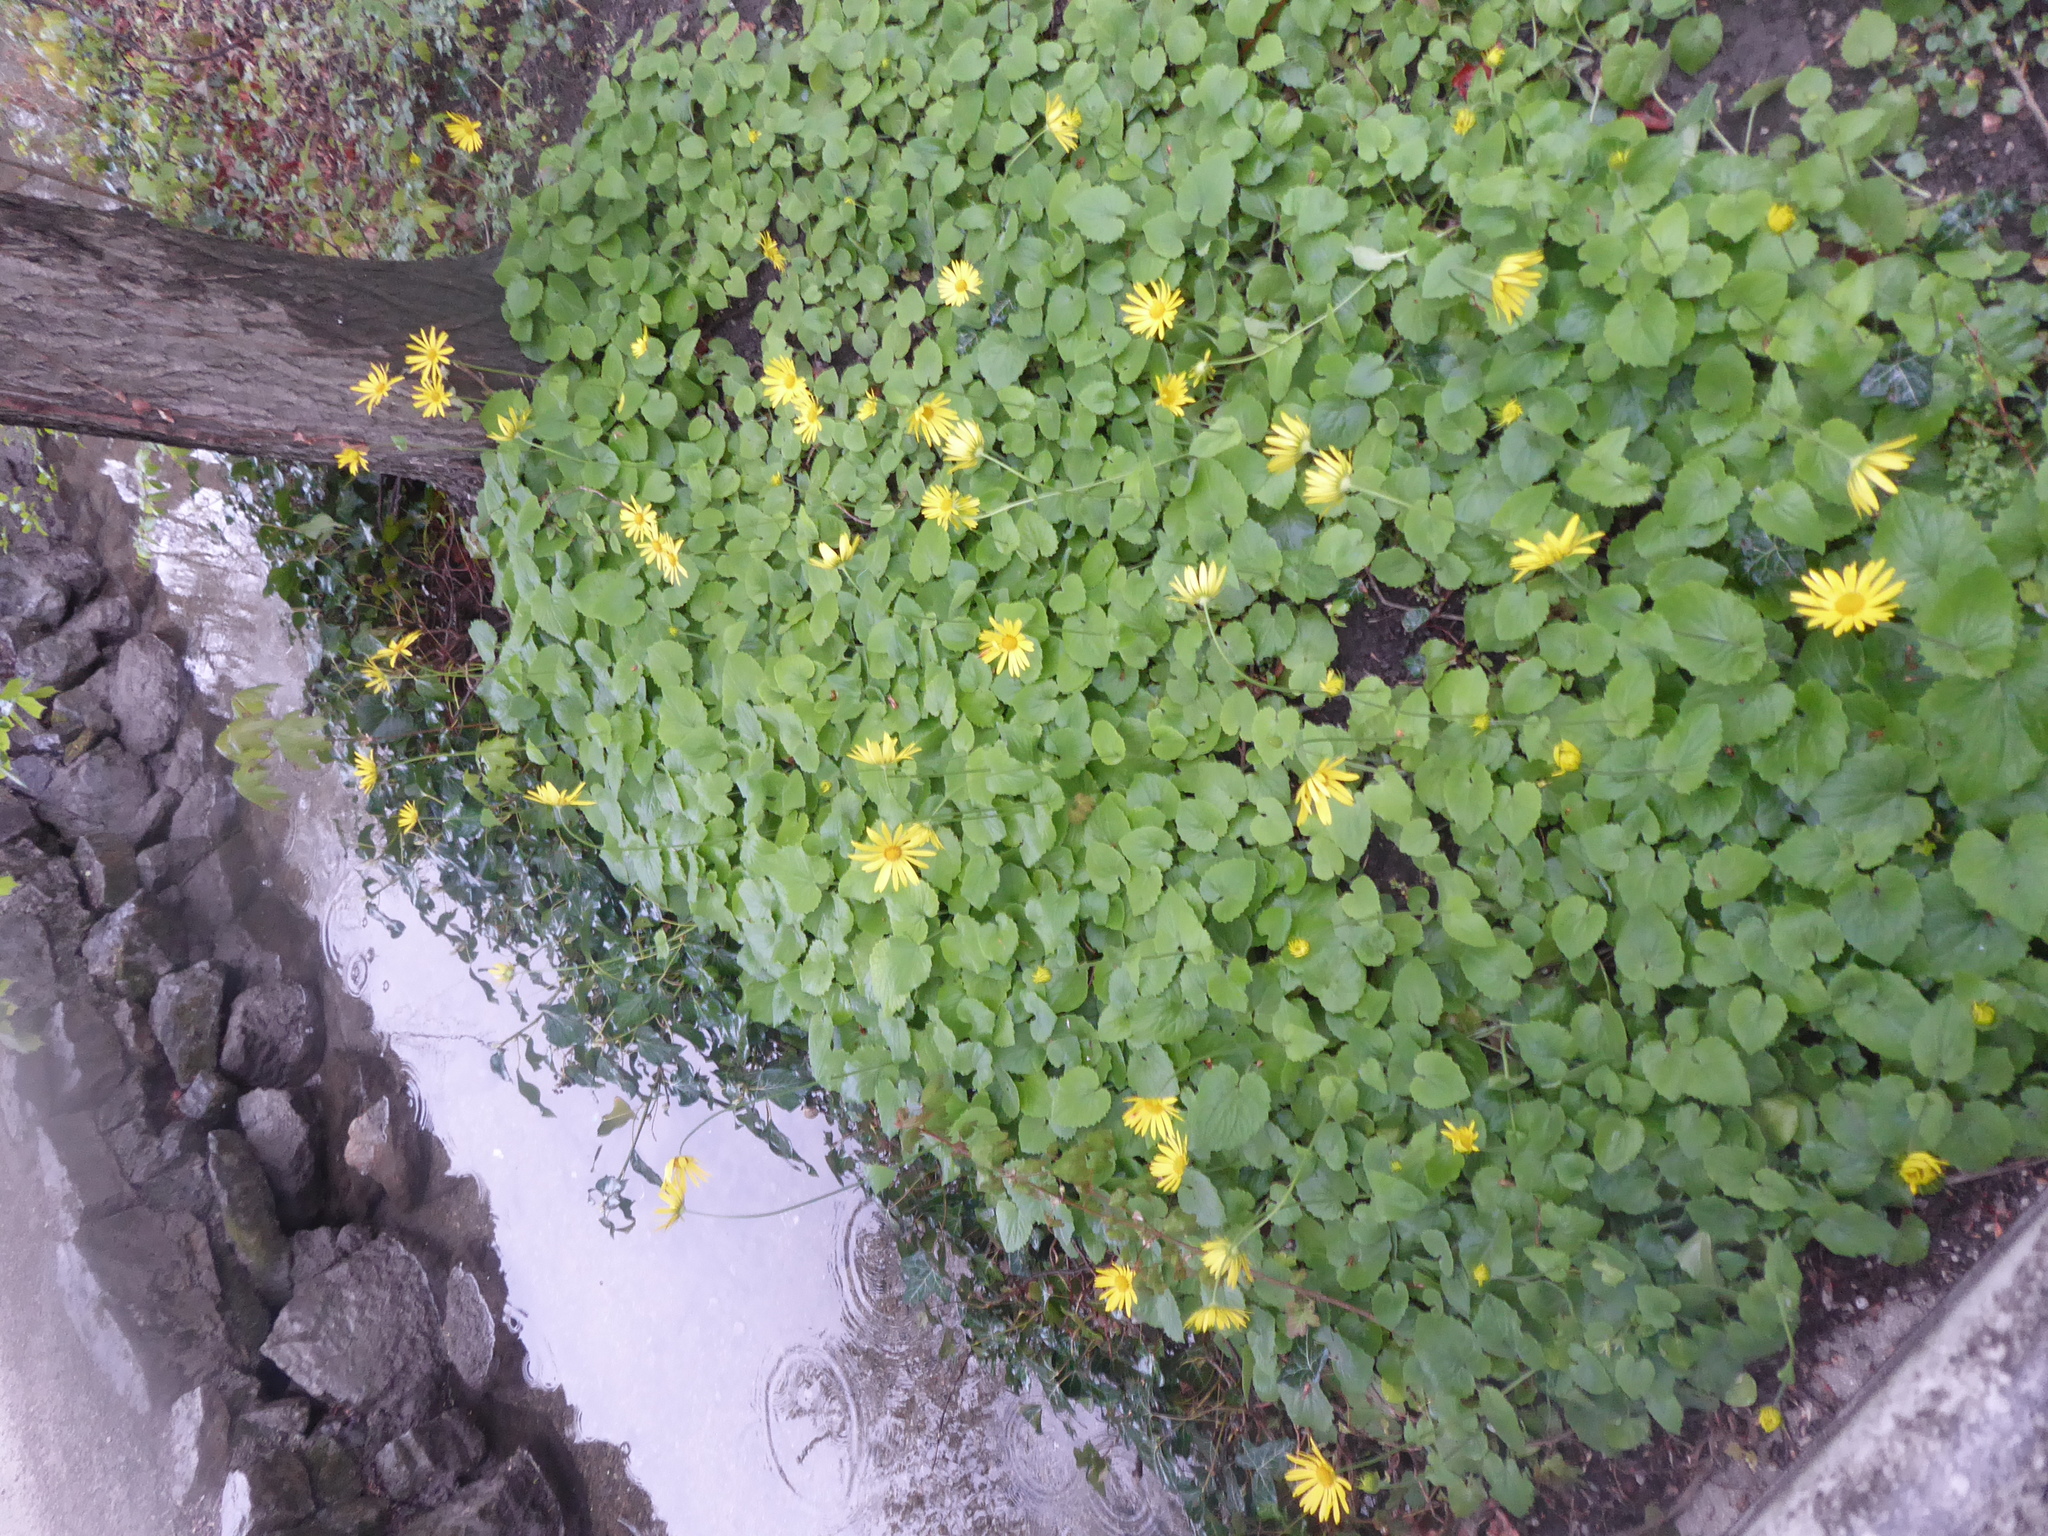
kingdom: Plantae
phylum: Tracheophyta
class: Magnoliopsida
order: Asterales
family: Asteraceae
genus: Doronicum
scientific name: Doronicum pardalianches
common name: Leopard's-bane
